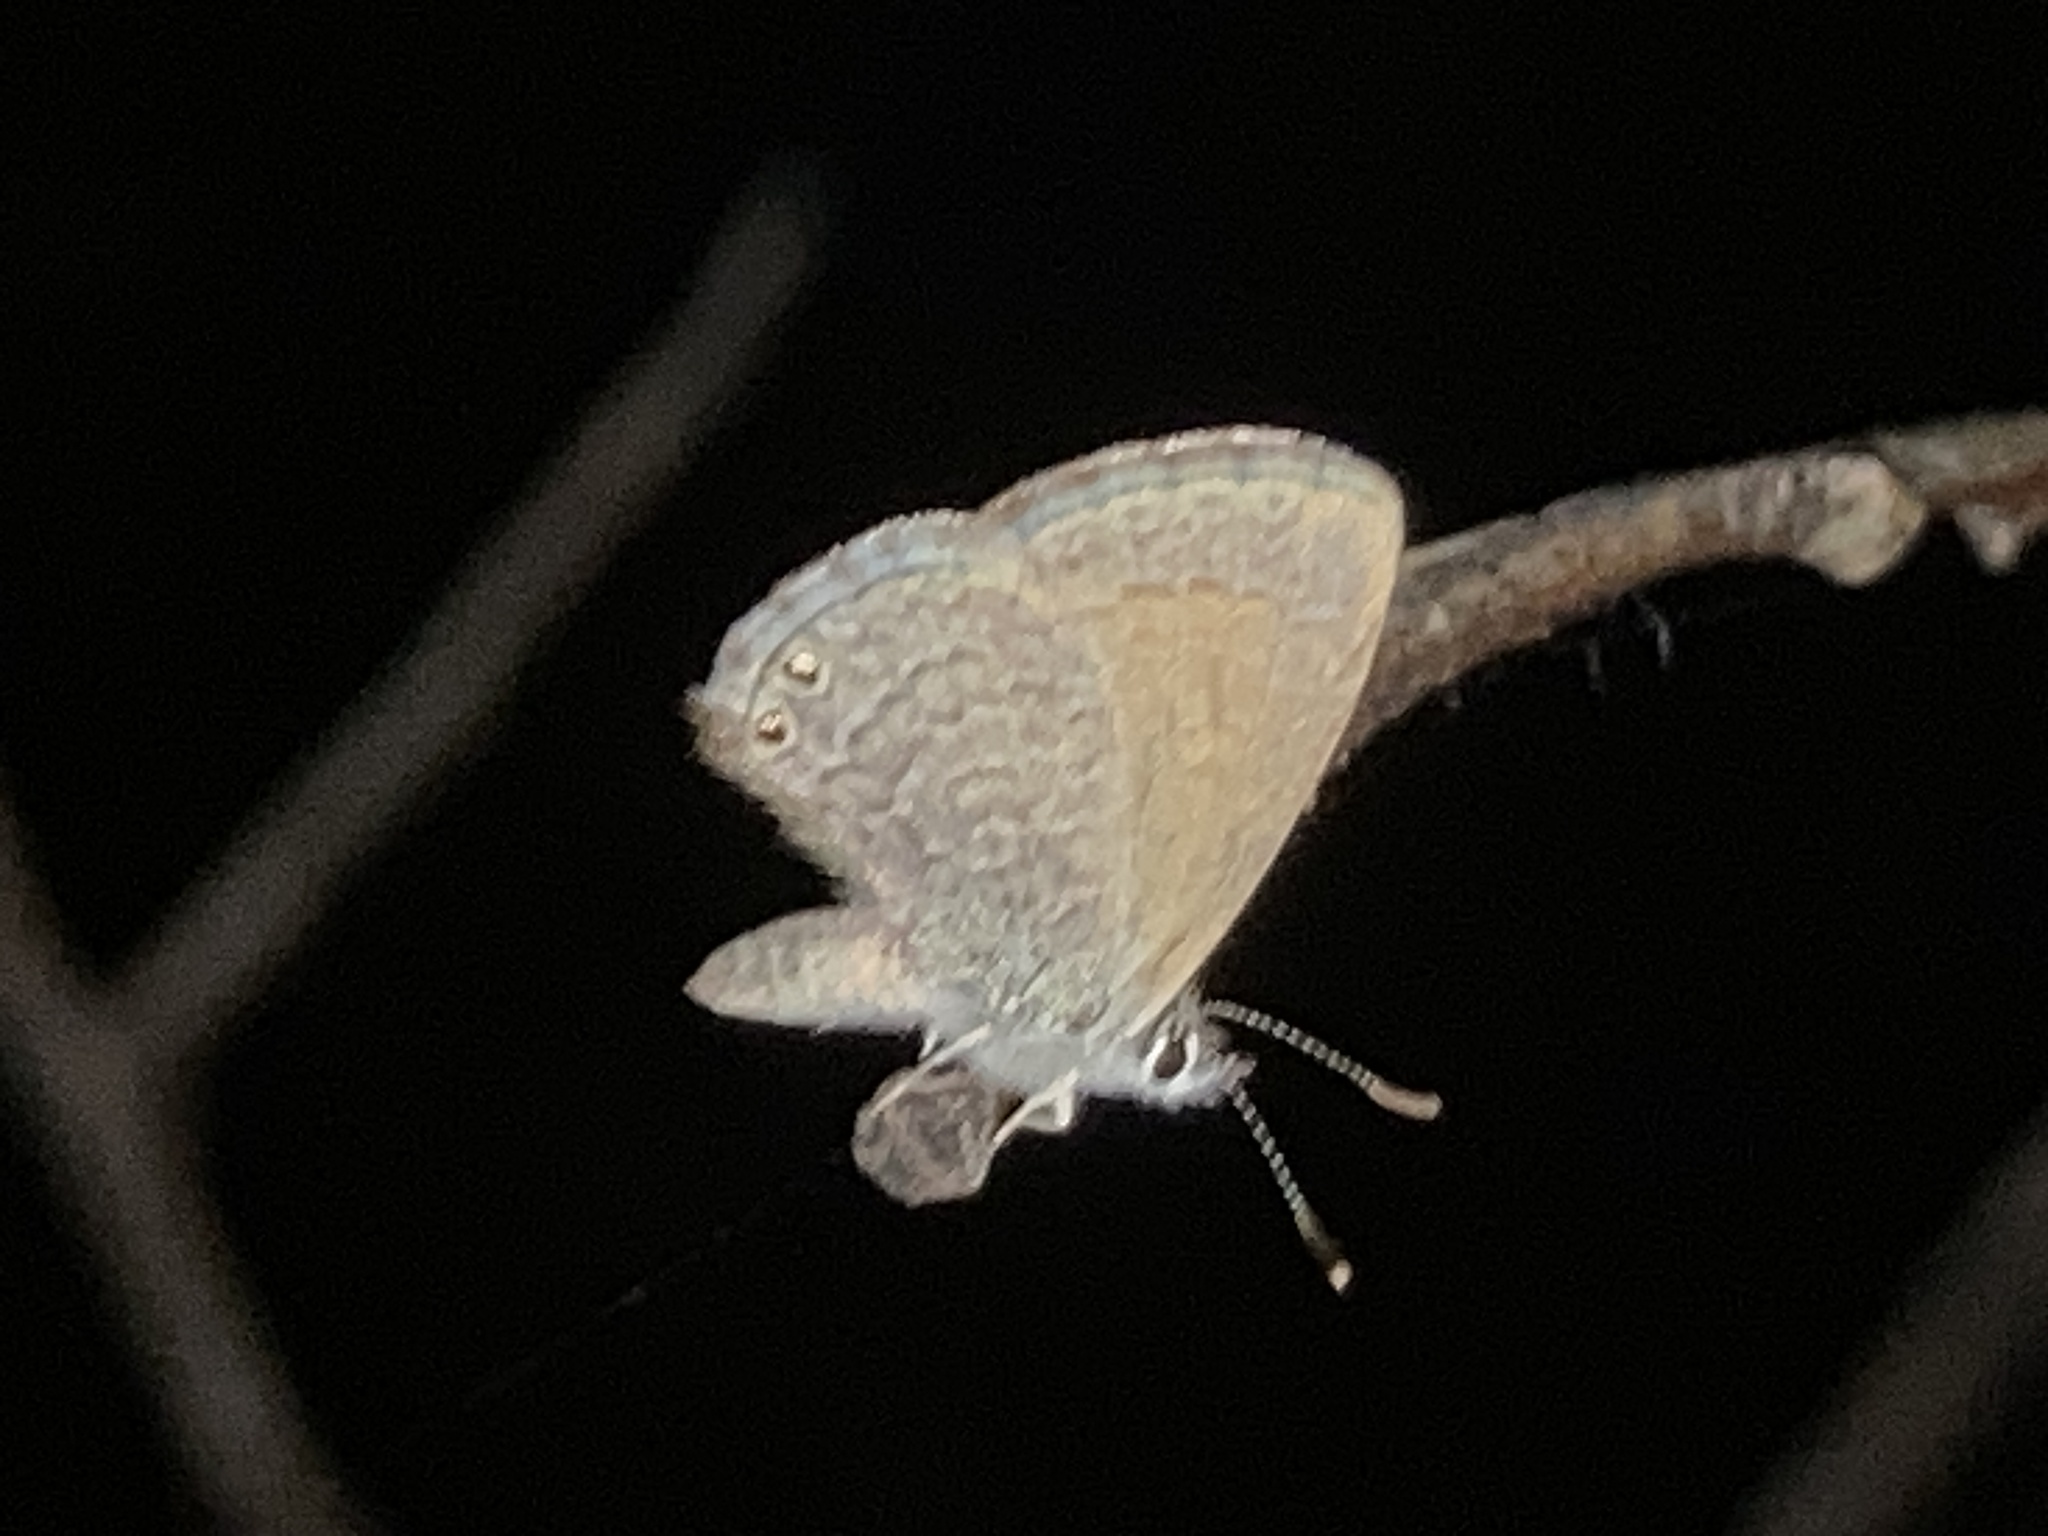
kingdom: Animalia
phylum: Arthropoda
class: Insecta
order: Lepidoptera
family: Lycaenidae
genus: Nacaduba
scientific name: Nacaduba biocellata
